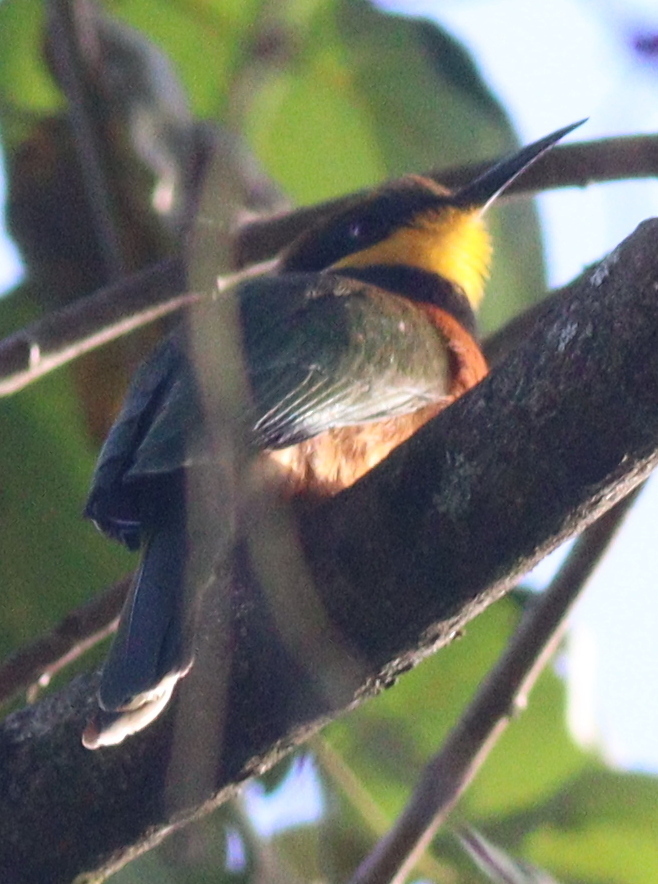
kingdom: Animalia
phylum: Chordata
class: Aves
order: Coraciiformes
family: Meropidae
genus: Merops
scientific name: Merops oreobates
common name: Cinnamon-chested bee-eater
